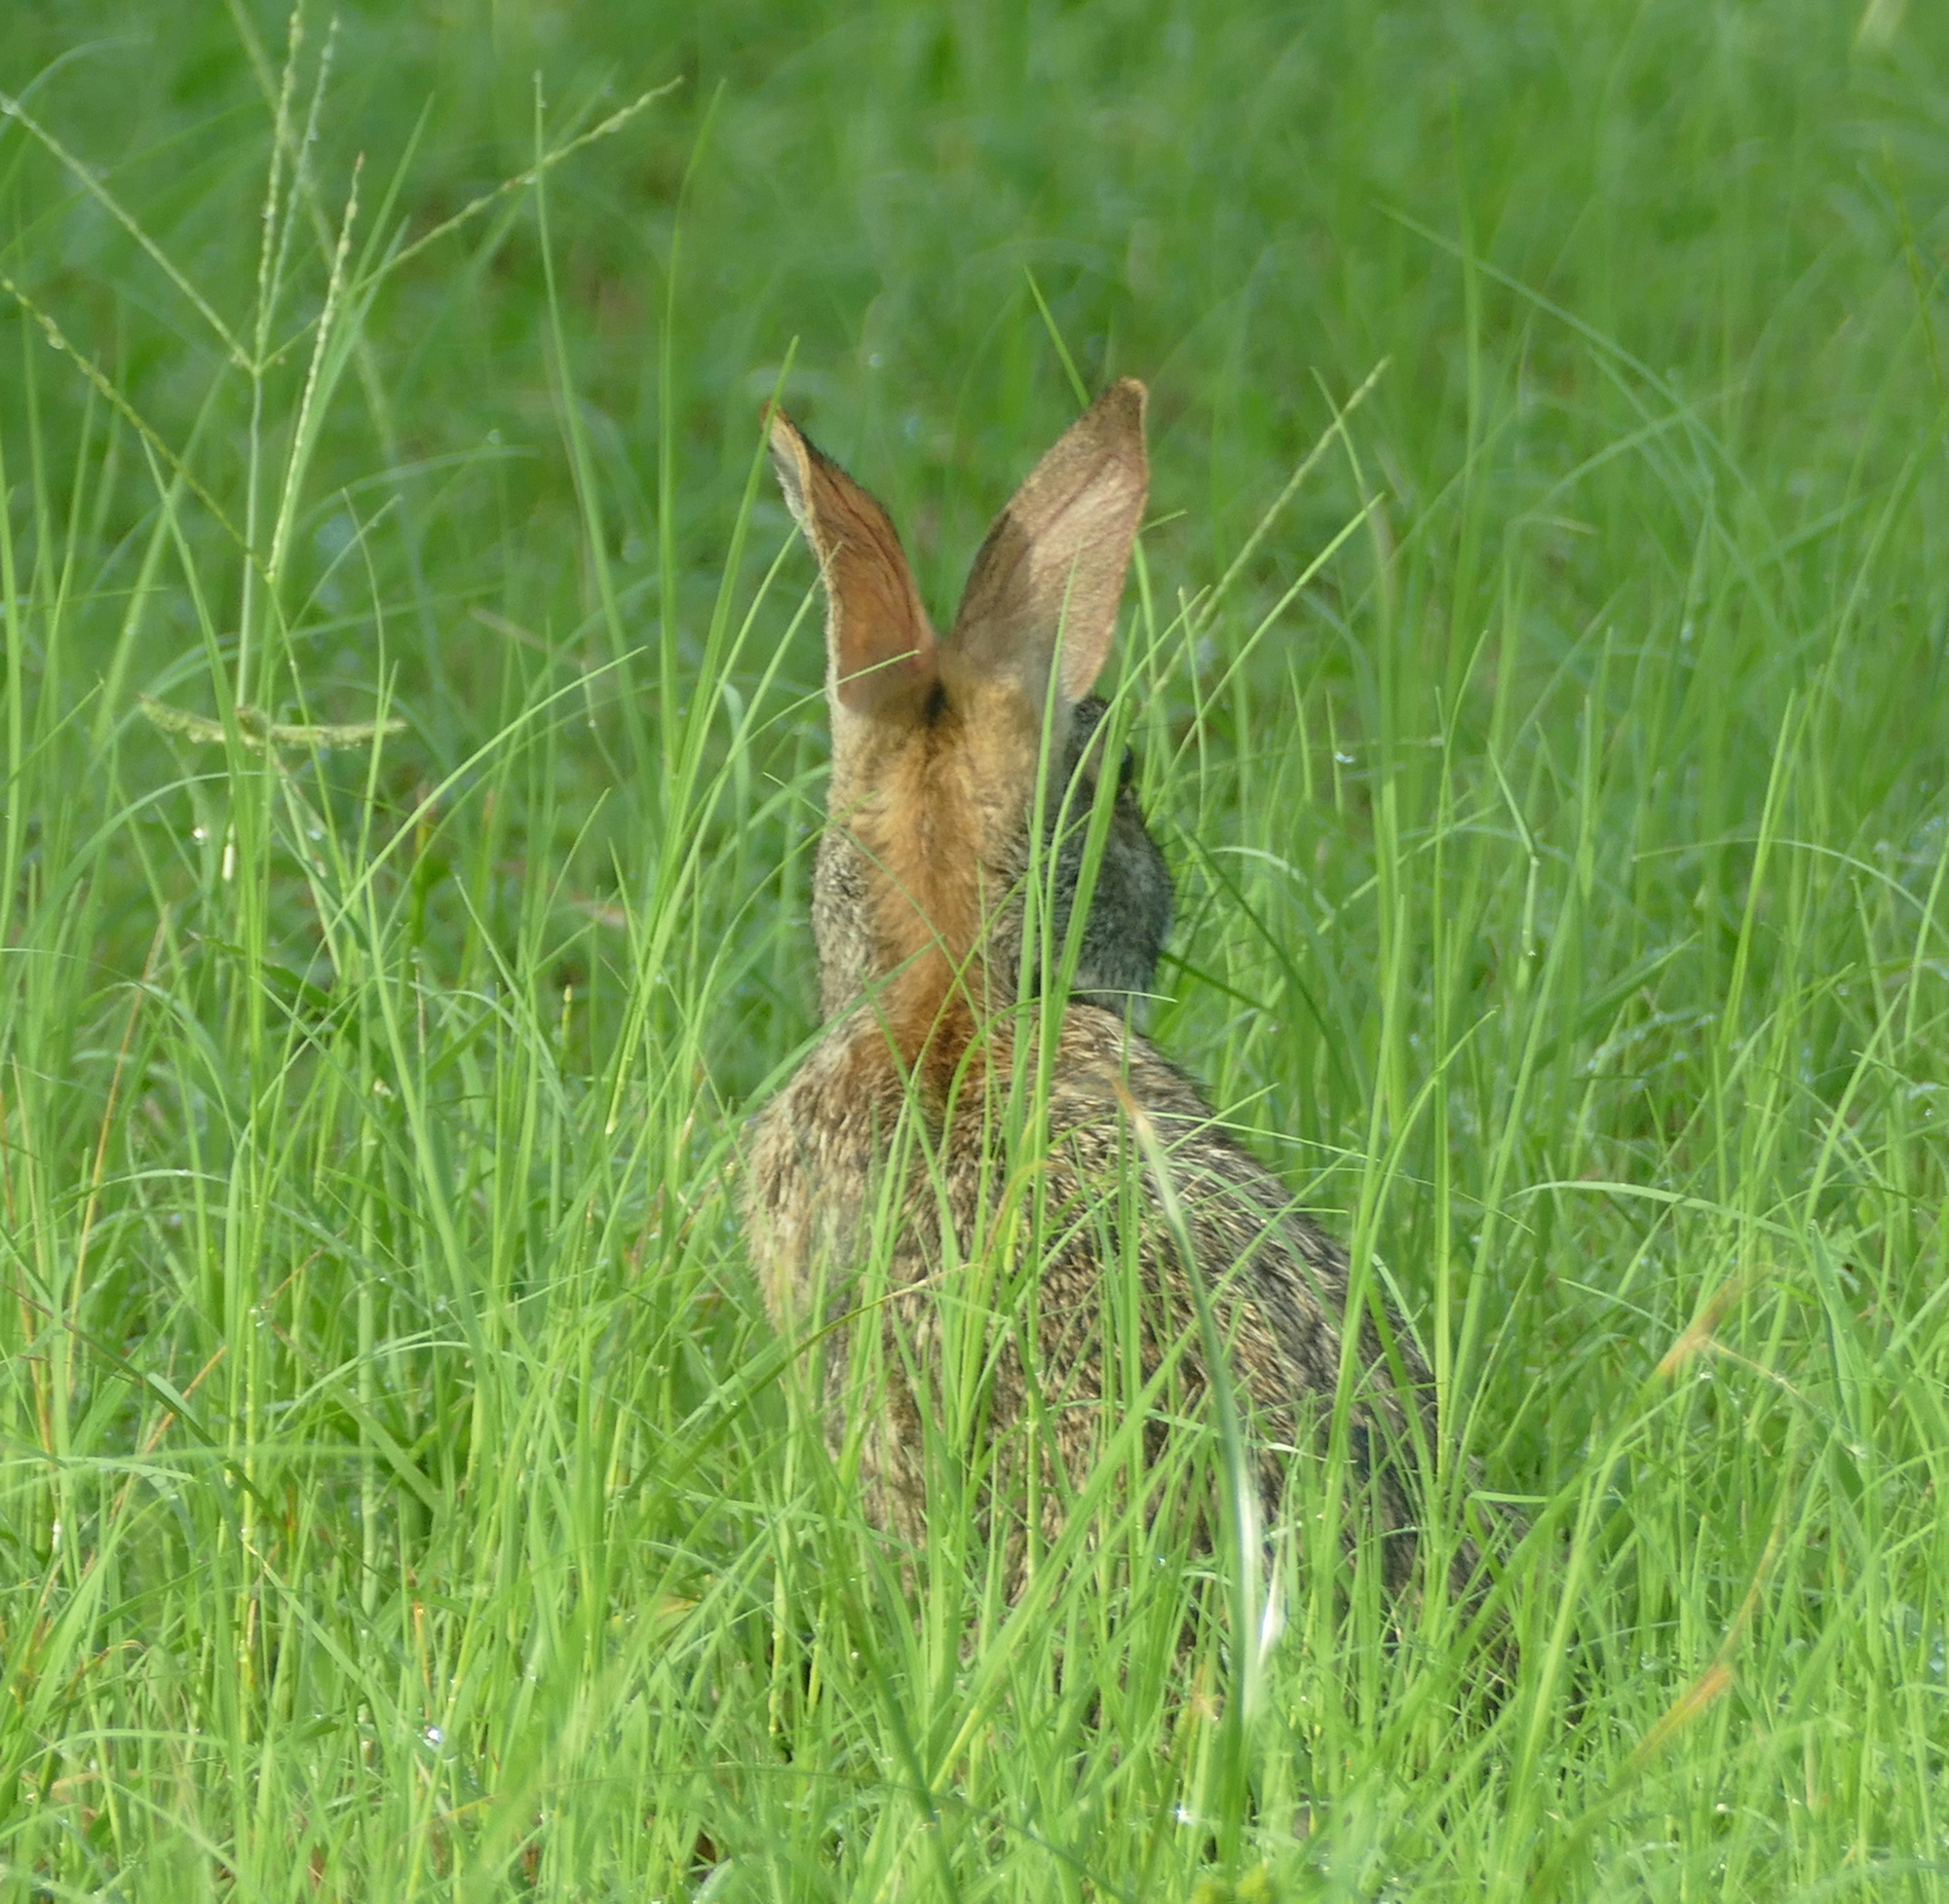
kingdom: Animalia
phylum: Chordata
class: Mammalia
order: Lagomorpha
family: Leporidae
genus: Sylvilagus
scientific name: Sylvilagus aquaticus
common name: Swamp rabbit
